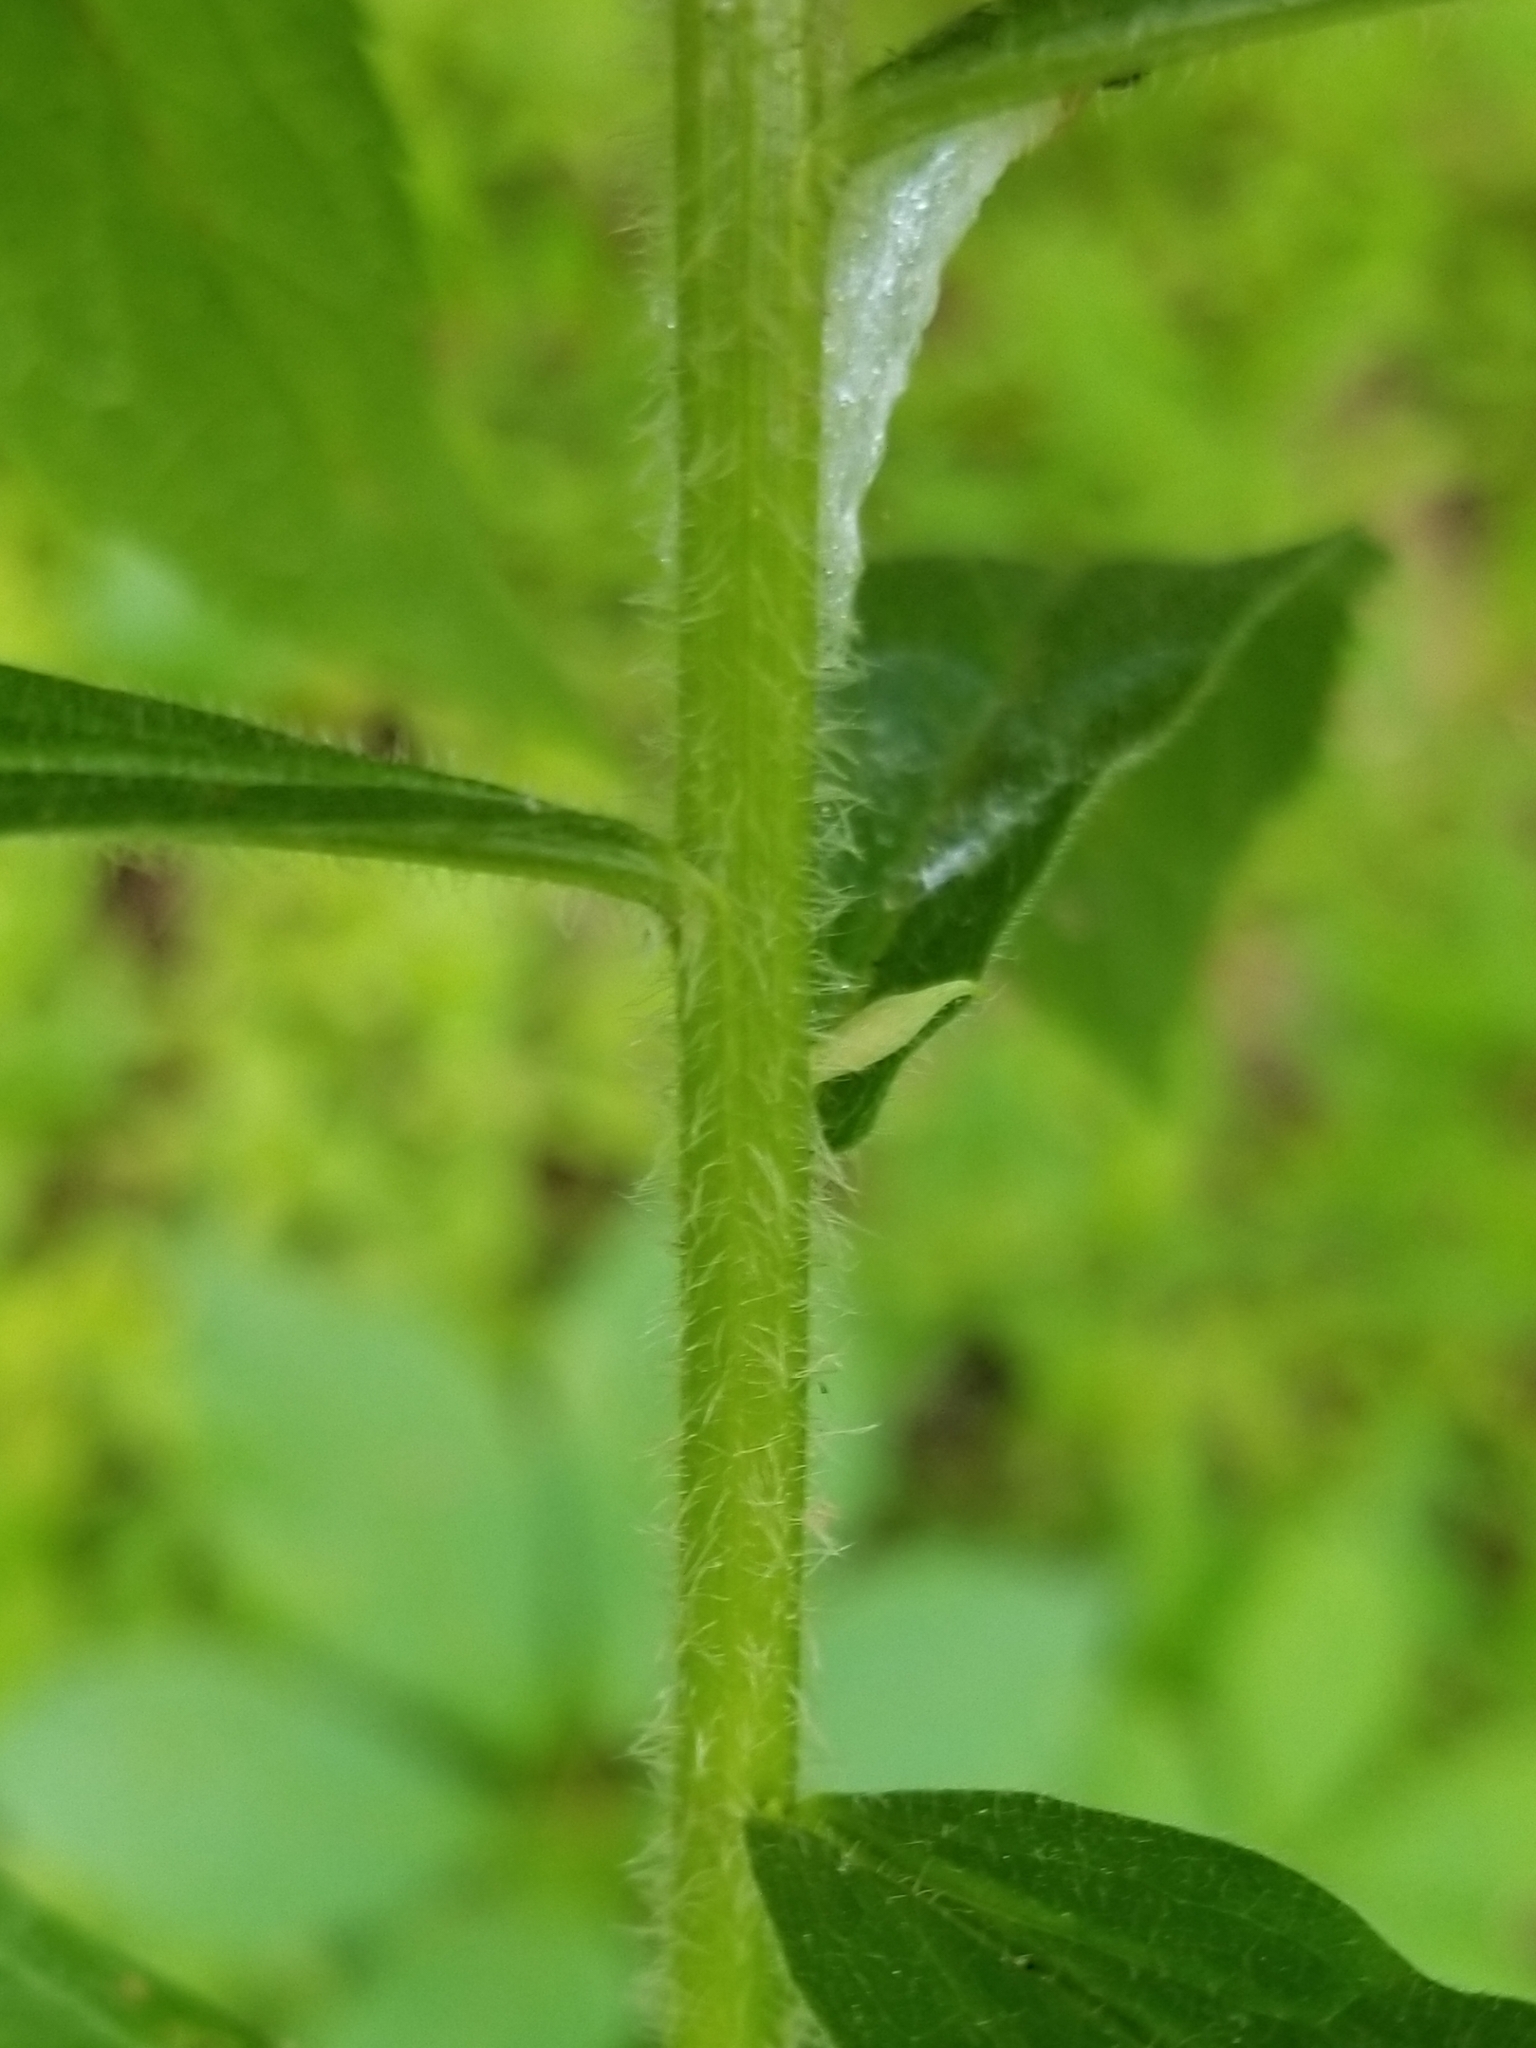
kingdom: Animalia
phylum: Arthropoda
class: Insecta
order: Diptera
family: Cecidomyiidae
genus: Rhopalomyia
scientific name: Rhopalomyia clarkei
